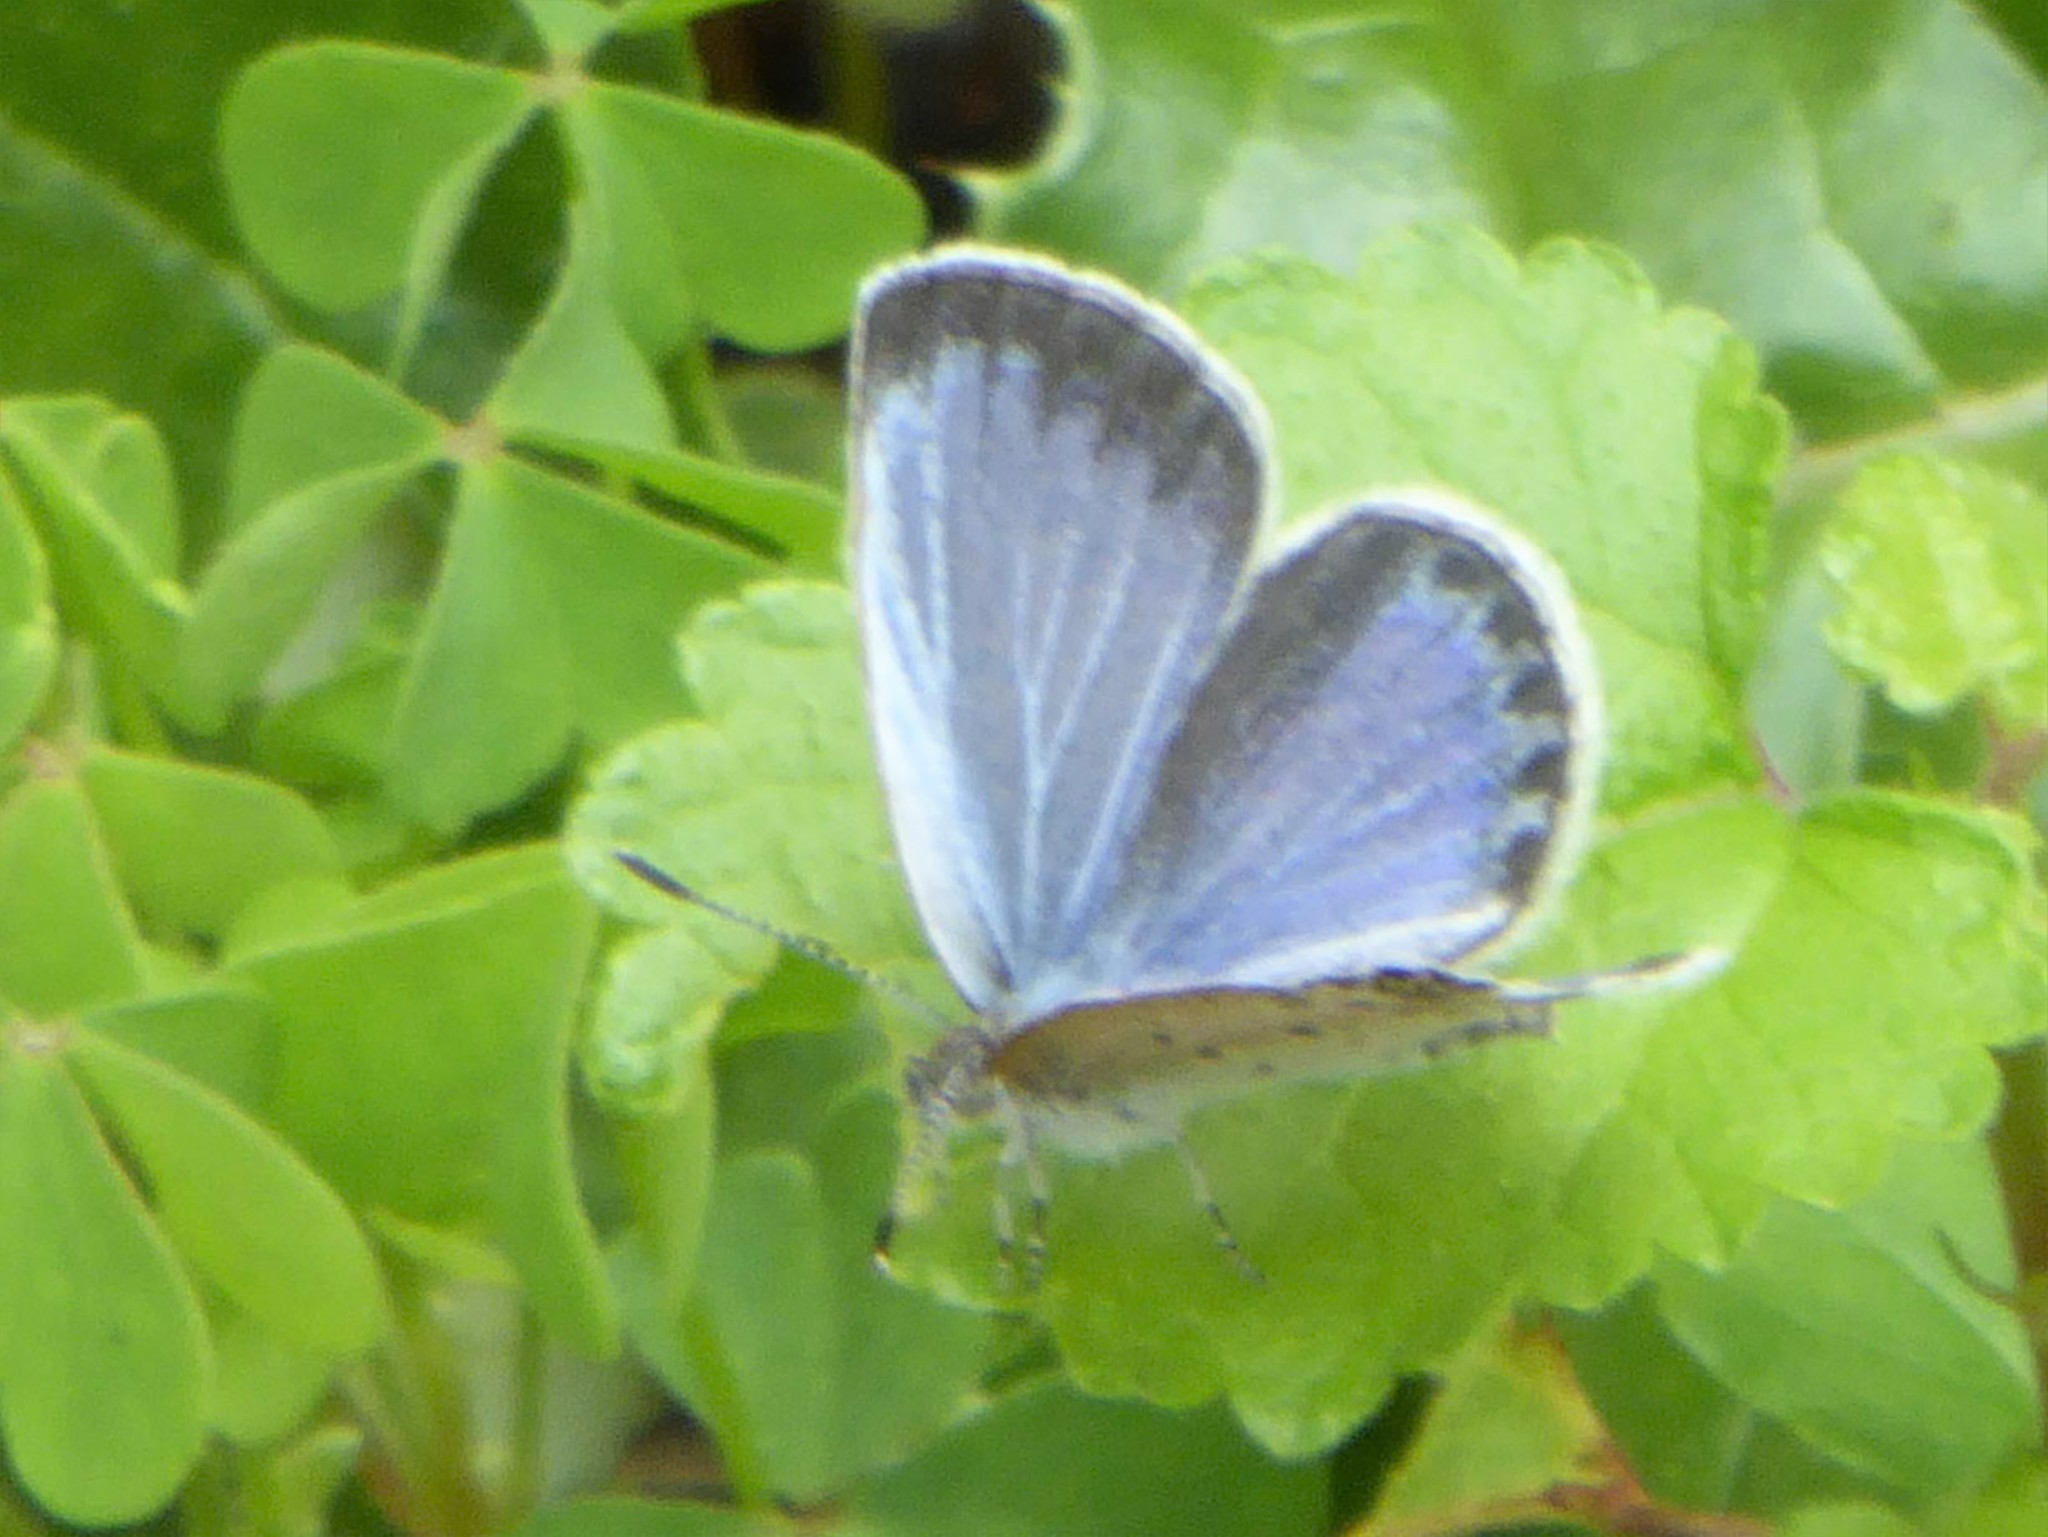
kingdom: Animalia
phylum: Arthropoda
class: Insecta
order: Lepidoptera
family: Lycaenidae
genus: Pseudozizeeria
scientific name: Pseudozizeeria maha
